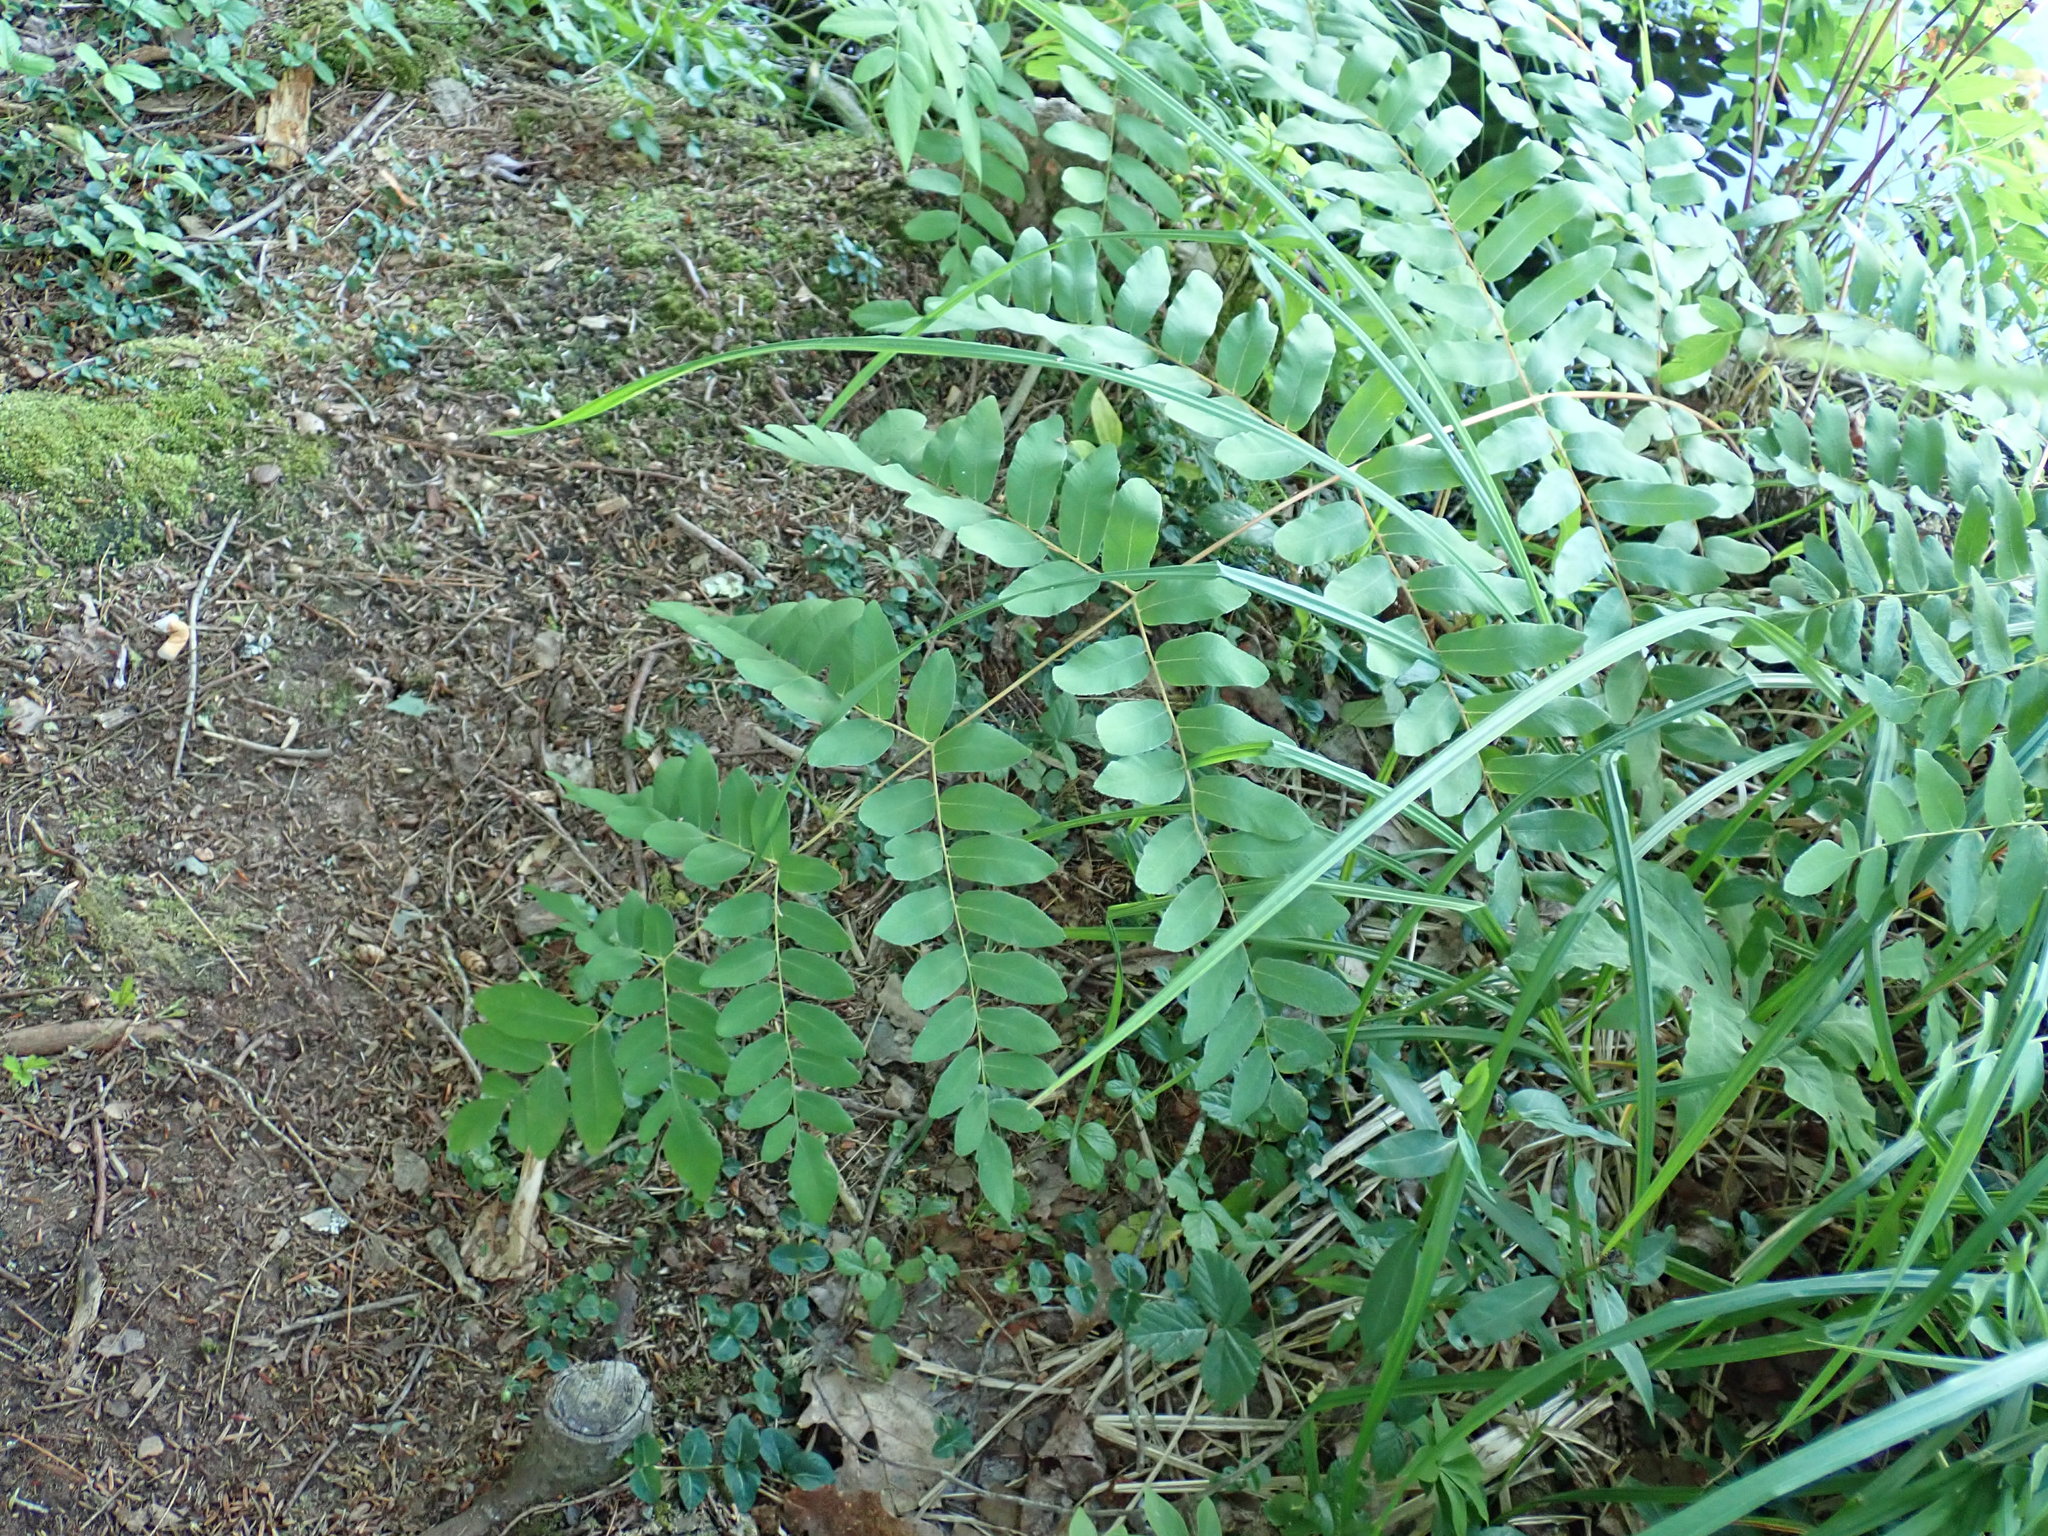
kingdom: Plantae
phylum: Tracheophyta
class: Polypodiopsida
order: Osmundales
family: Osmundaceae
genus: Osmunda
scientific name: Osmunda spectabilis
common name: American royal fern
